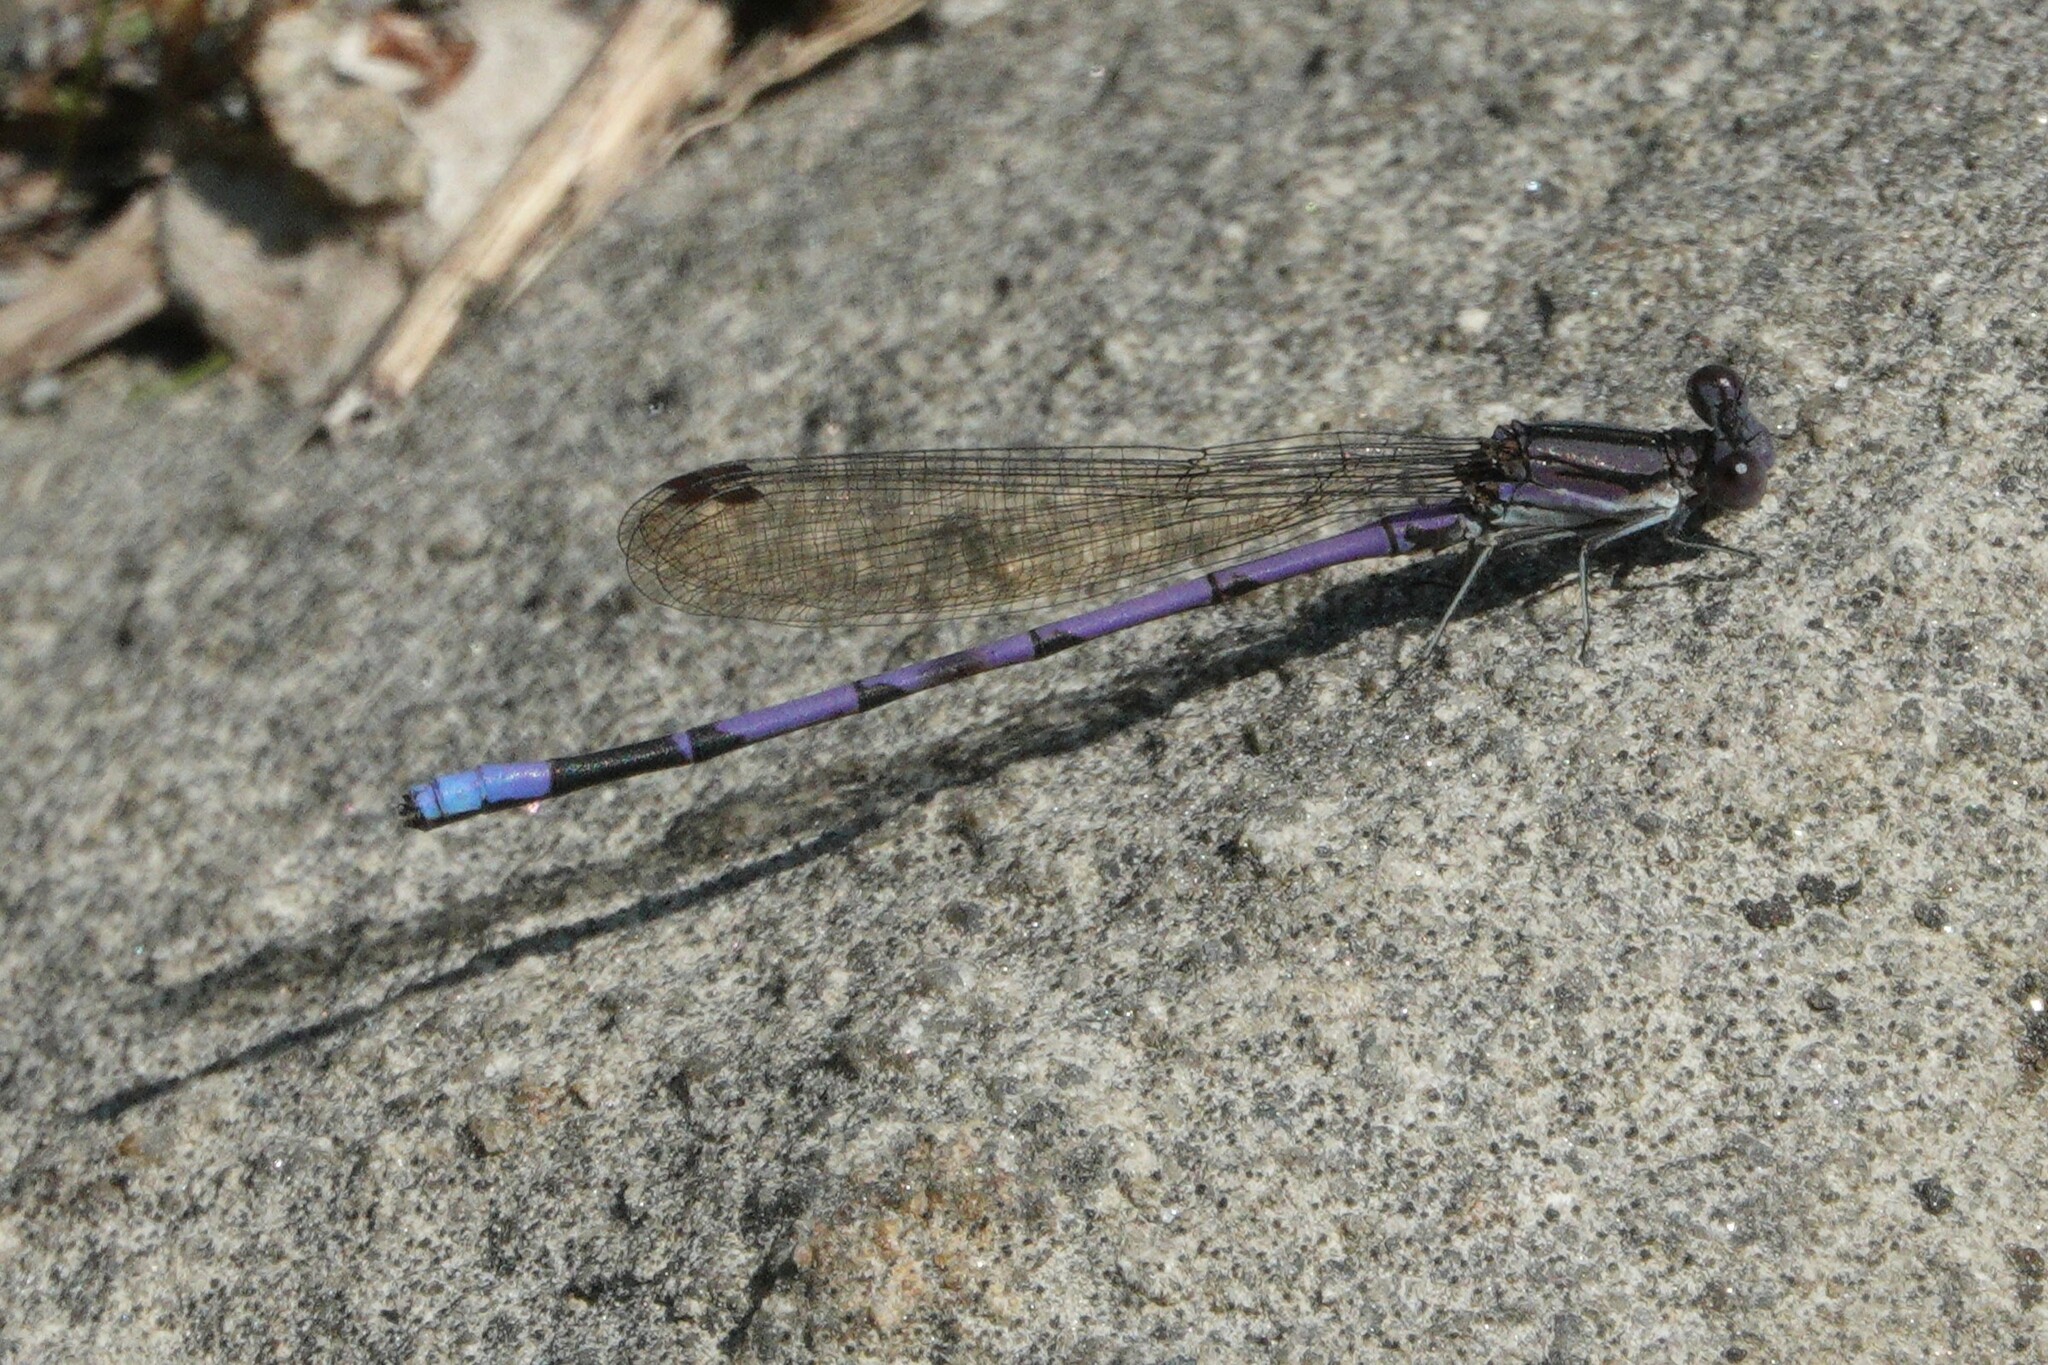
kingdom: Animalia
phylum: Arthropoda
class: Insecta
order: Odonata
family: Coenagrionidae
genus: Argia
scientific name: Argia fumipennis
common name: Variable dancer
